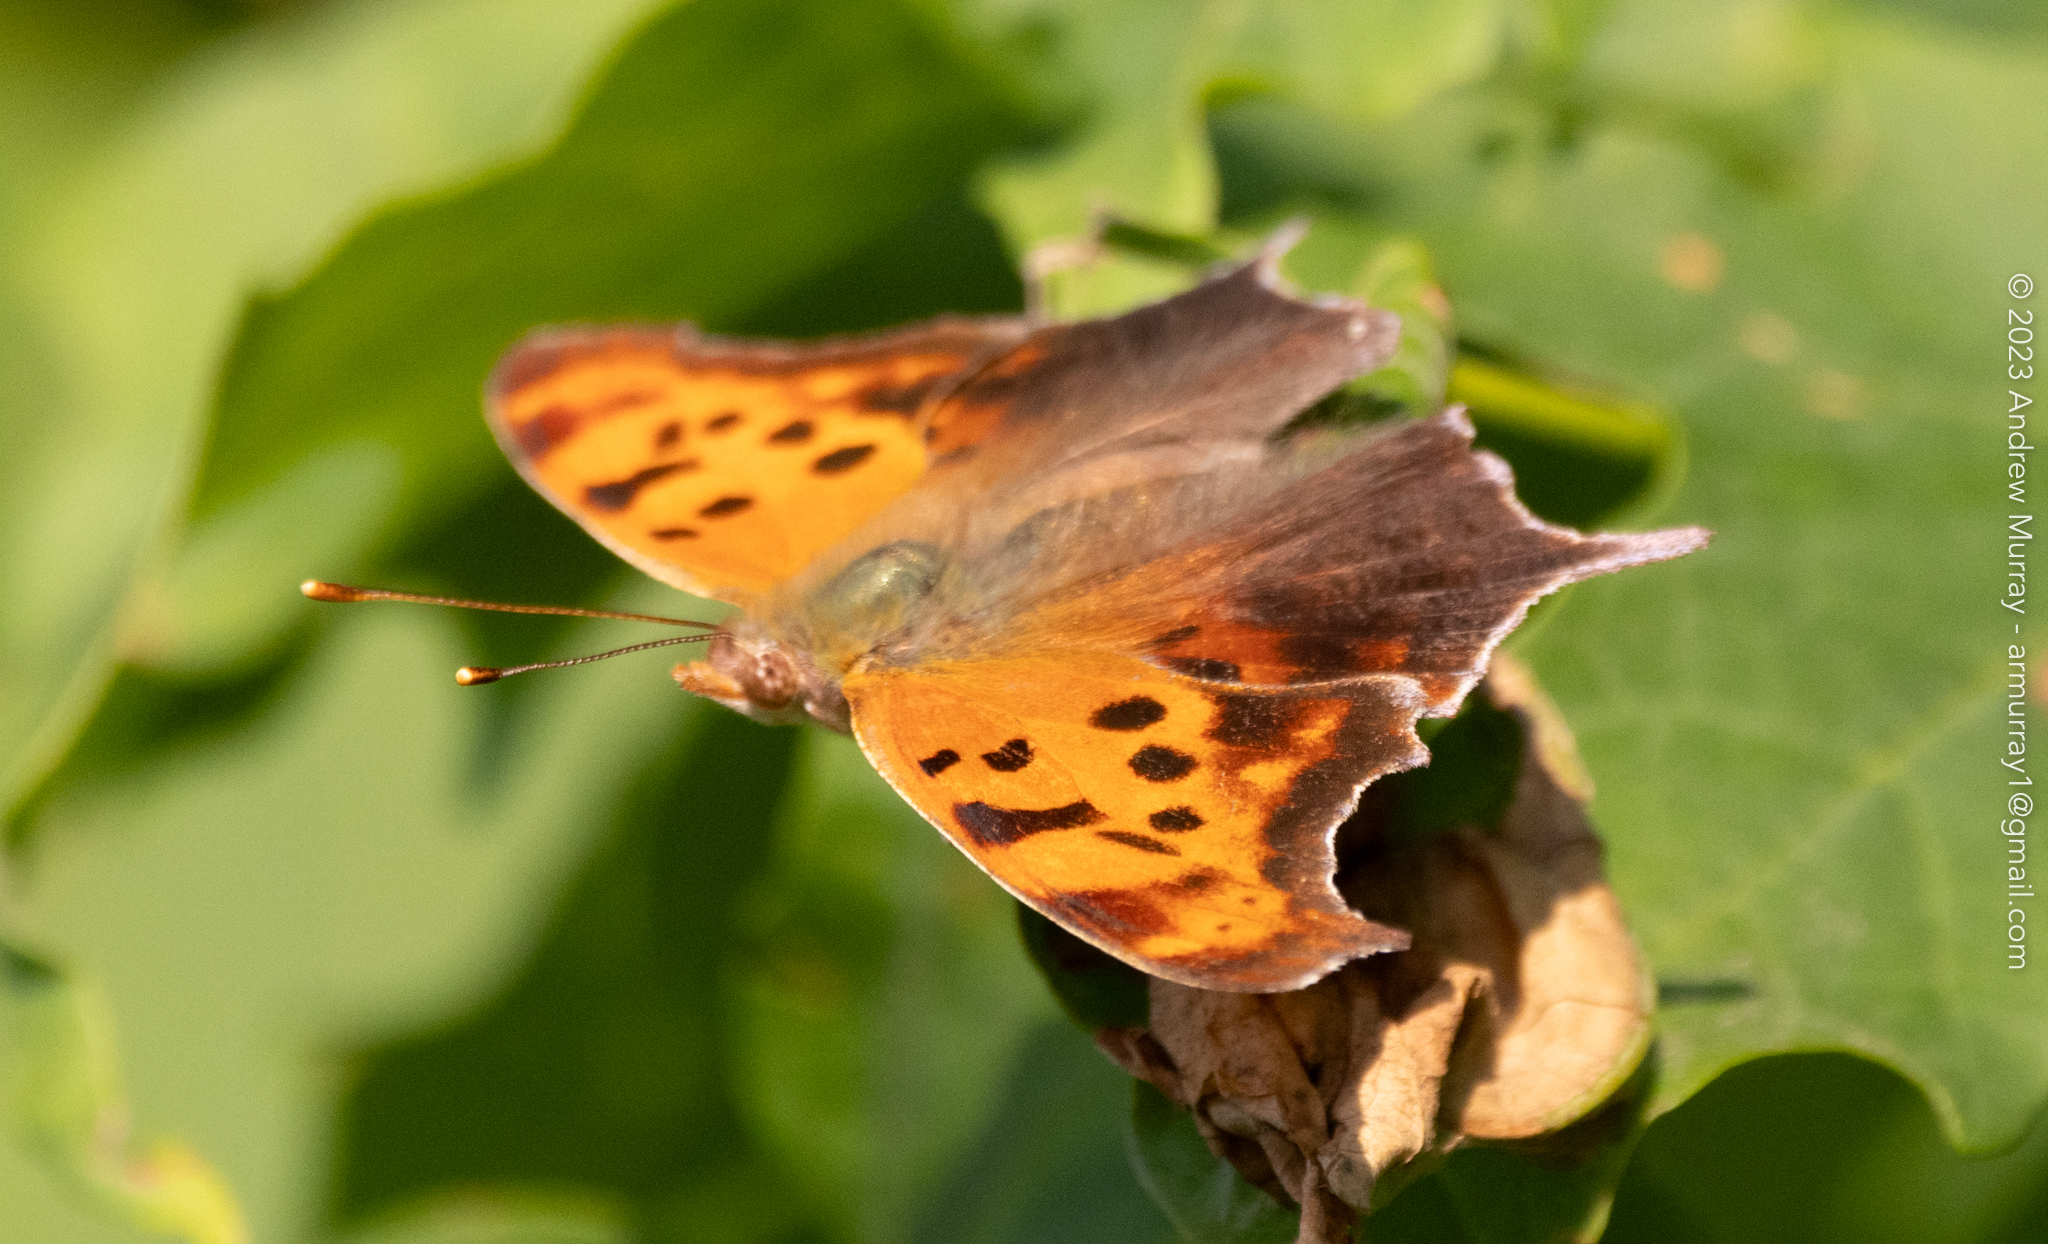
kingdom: Animalia
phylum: Arthropoda
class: Insecta
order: Lepidoptera
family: Nymphalidae
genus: Polygonia
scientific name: Polygonia interrogationis
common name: Question mark
